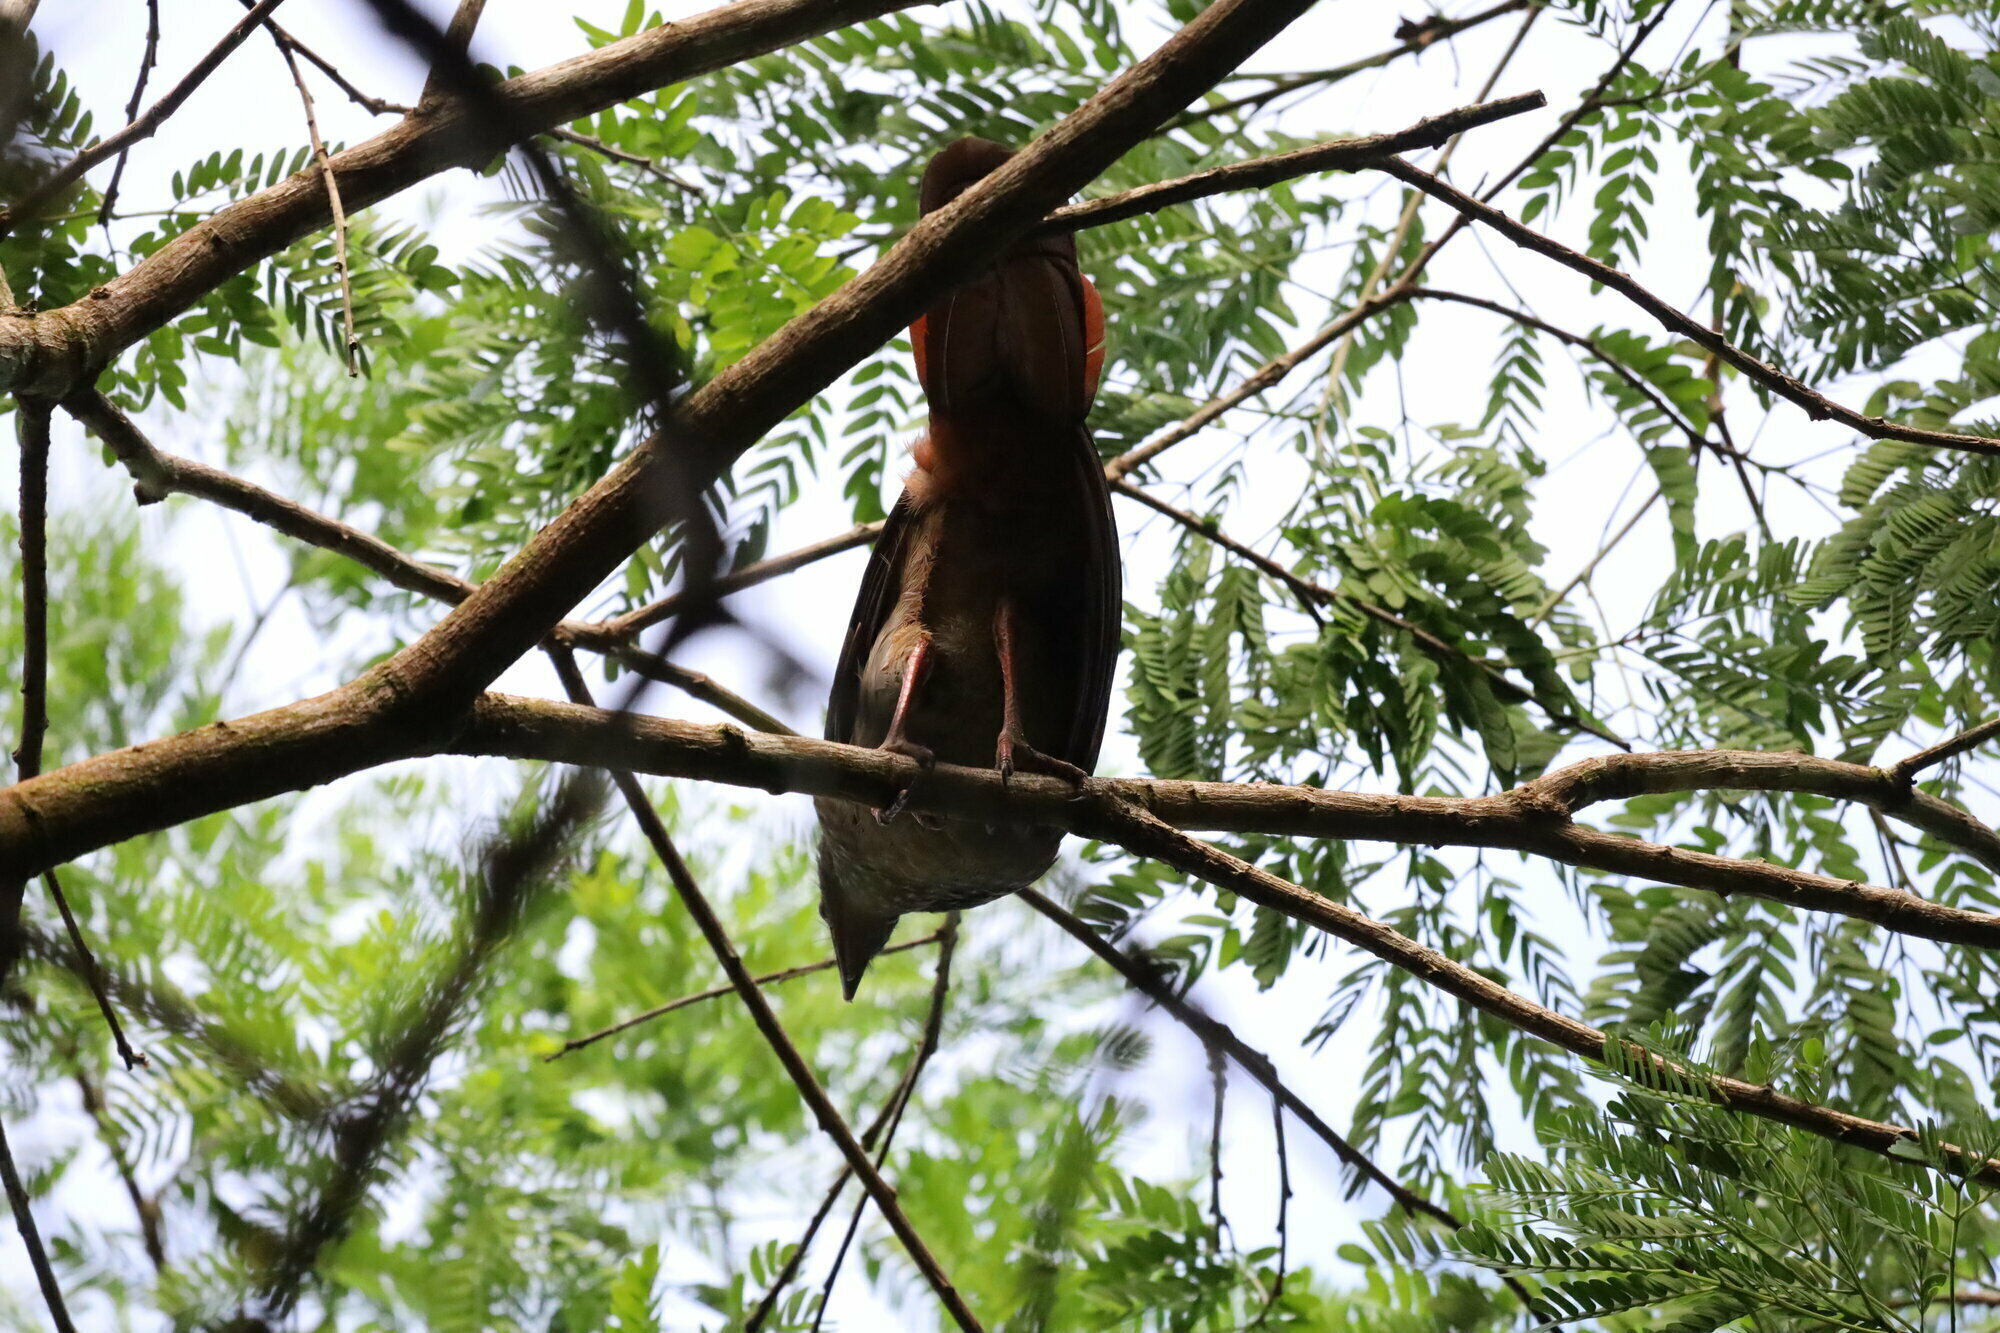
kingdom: Animalia
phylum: Chordata
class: Aves
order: Galliformes
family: Cracidae
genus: Ortalis
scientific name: Ortalis guttata
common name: Speckled chachalaca
